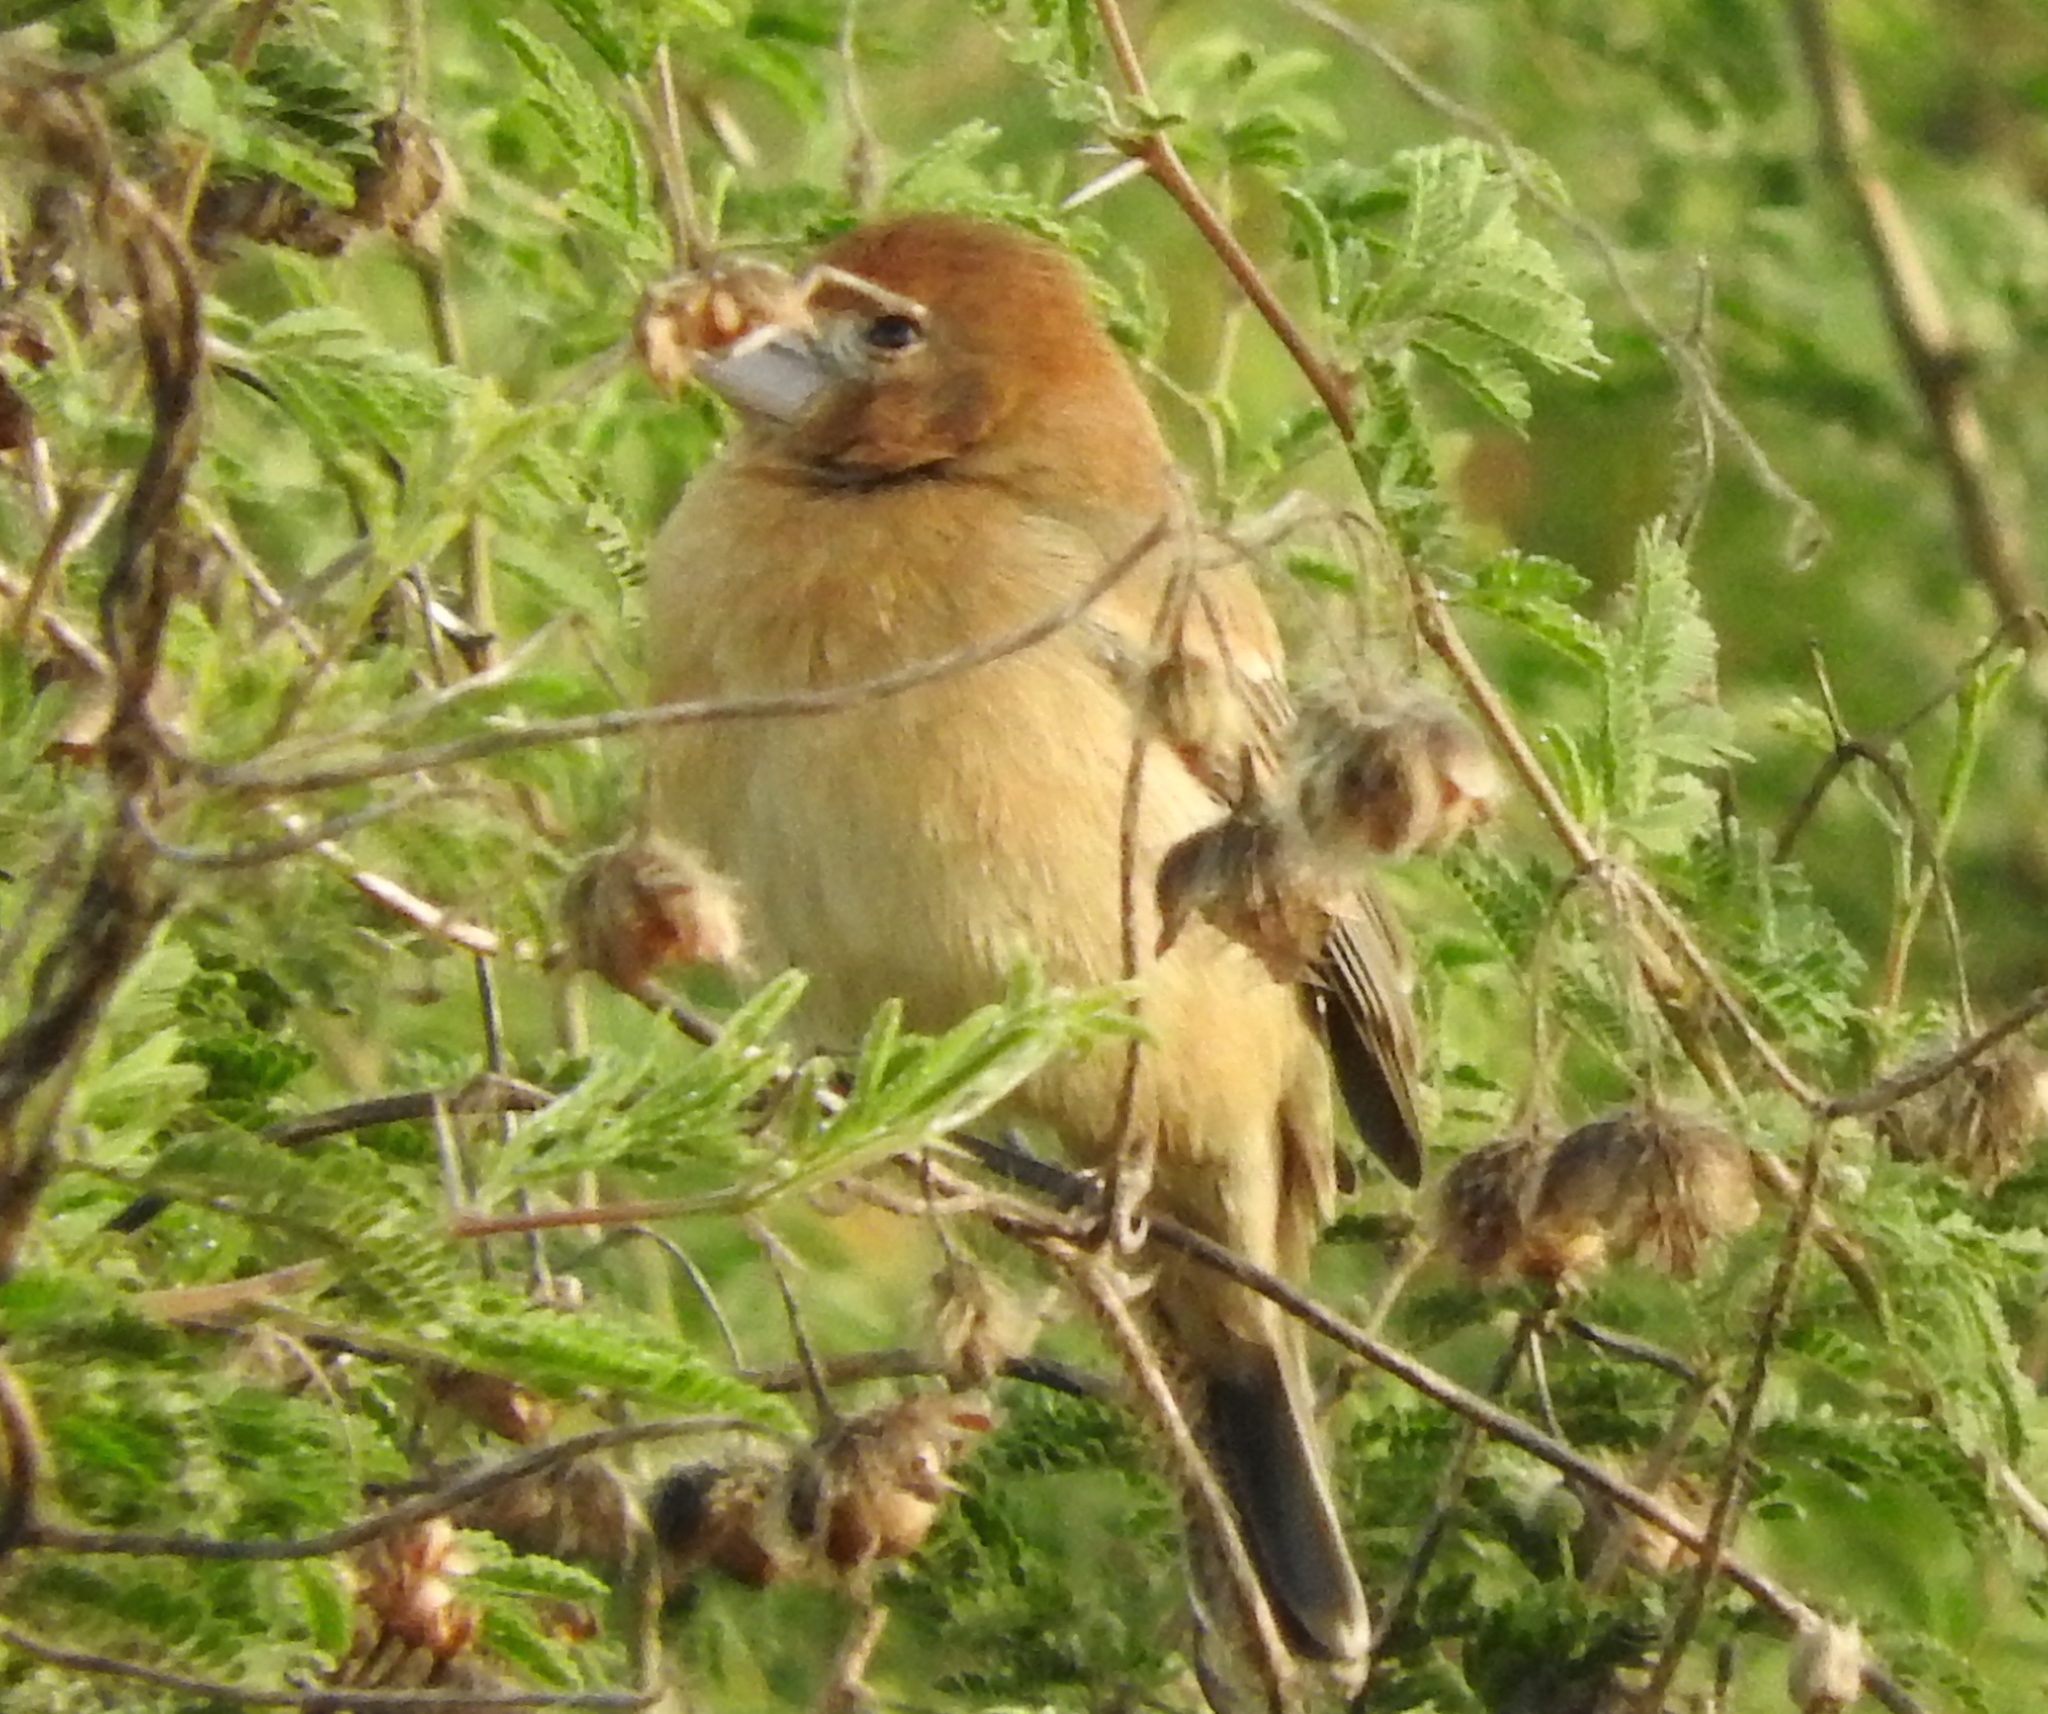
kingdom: Animalia
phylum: Chordata
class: Aves
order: Passeriformes
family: Cardinalidae
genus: Passerina
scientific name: Passerina caerulea
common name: Blue grosbeak
